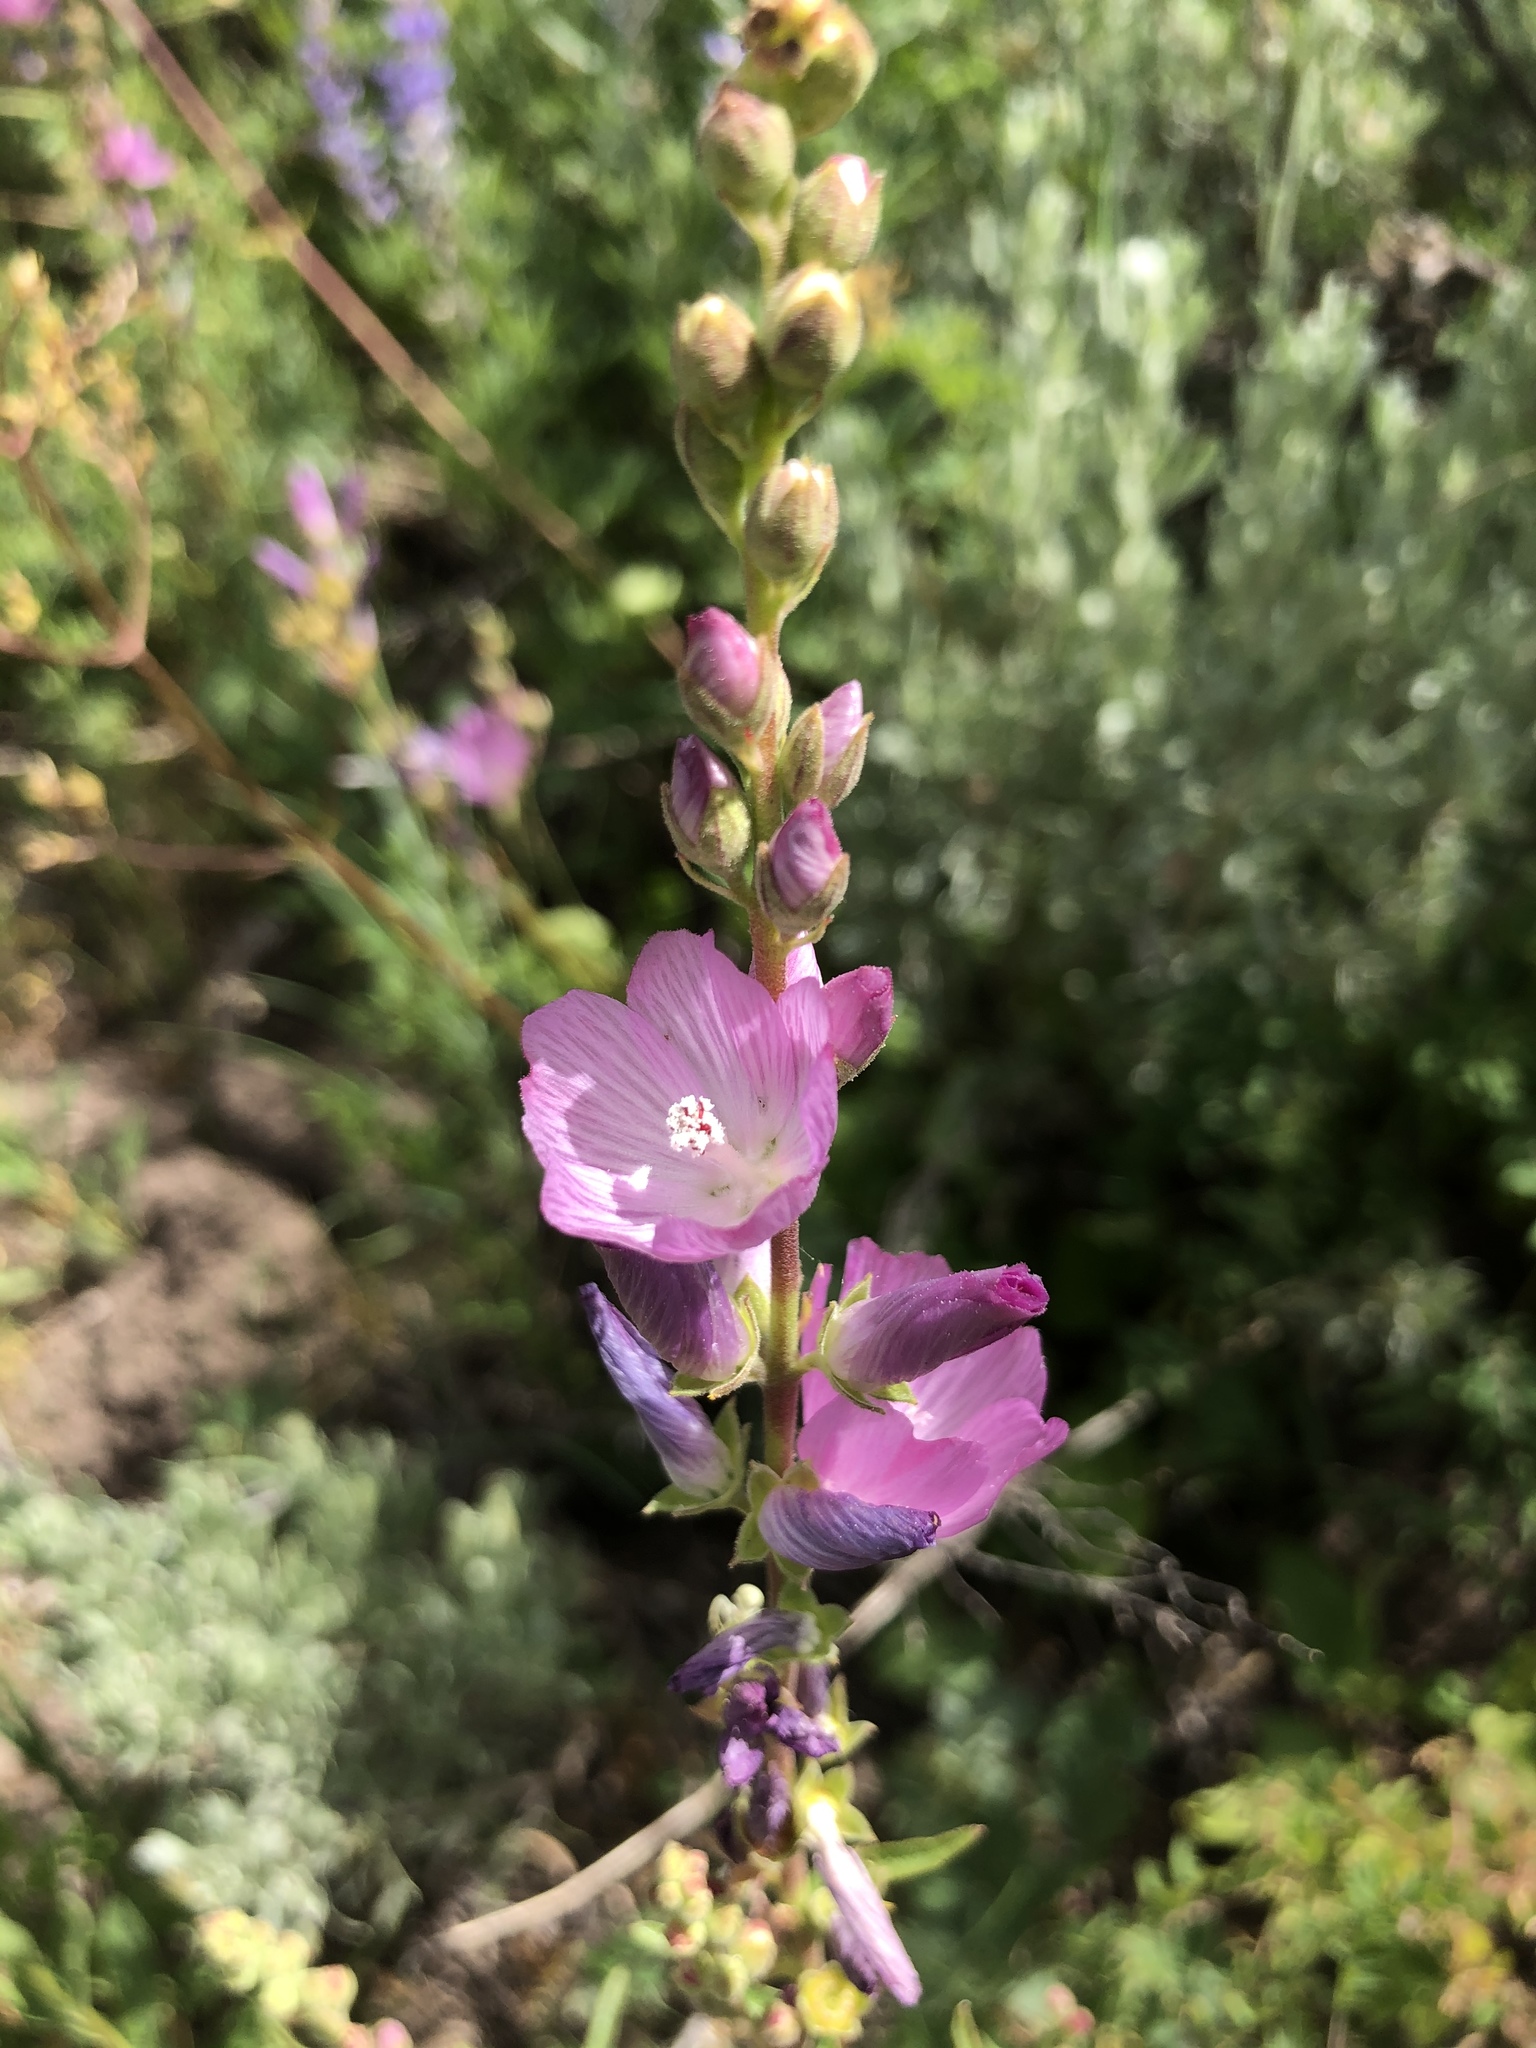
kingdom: Plantae
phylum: Tracheophyta
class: Magnoliopsida
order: Malvales
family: Malvaceae
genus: Sidalcea
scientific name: Sidalcea oregana
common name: Oregon checker-mallow
